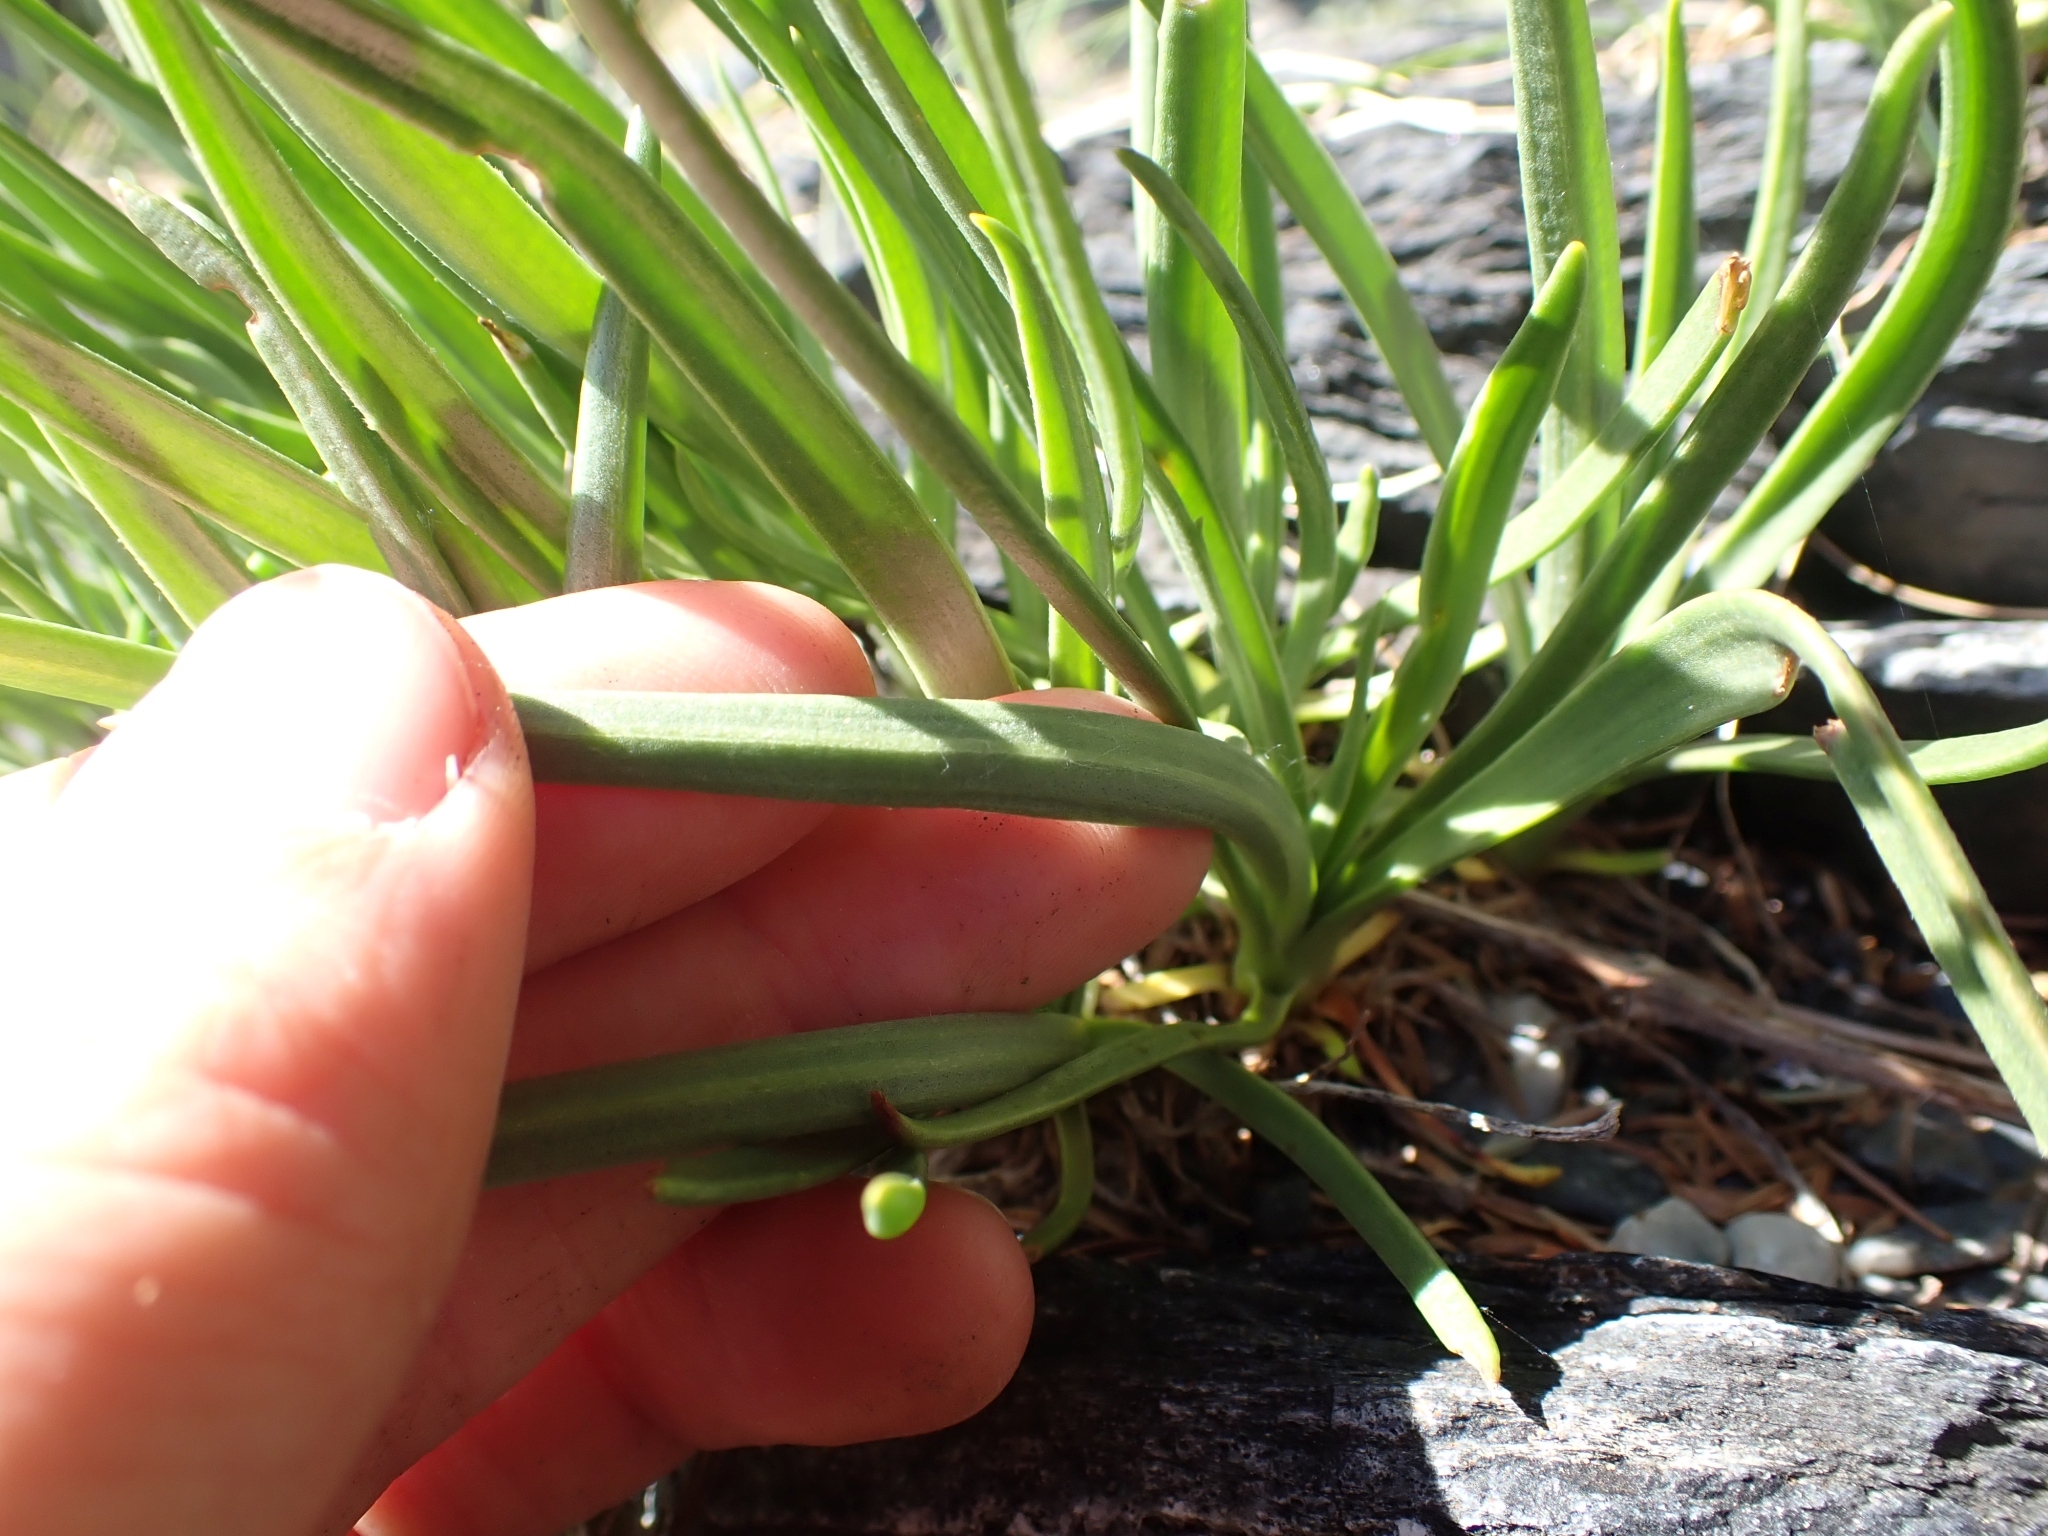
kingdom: Plantae
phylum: Tracheophyta
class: Magnoliopsida
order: Lamiales
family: Plantaginaceae
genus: Plantago
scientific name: Plantago maritima
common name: Sea plantain
